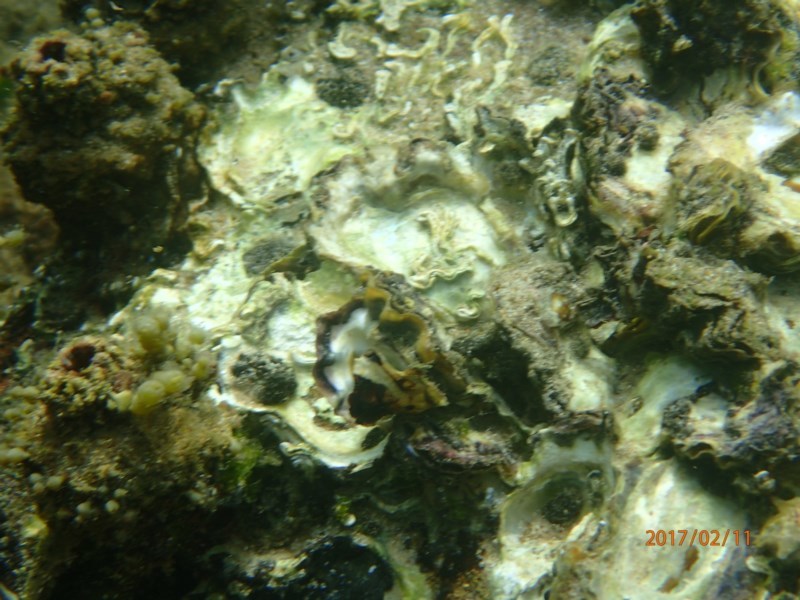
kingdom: Animalia
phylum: Mollusca
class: Bivalvia
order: Ostreida
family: Ostreidae
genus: Saccostrea
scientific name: Saccostrea glomerata
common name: Sydney cupped oyster
